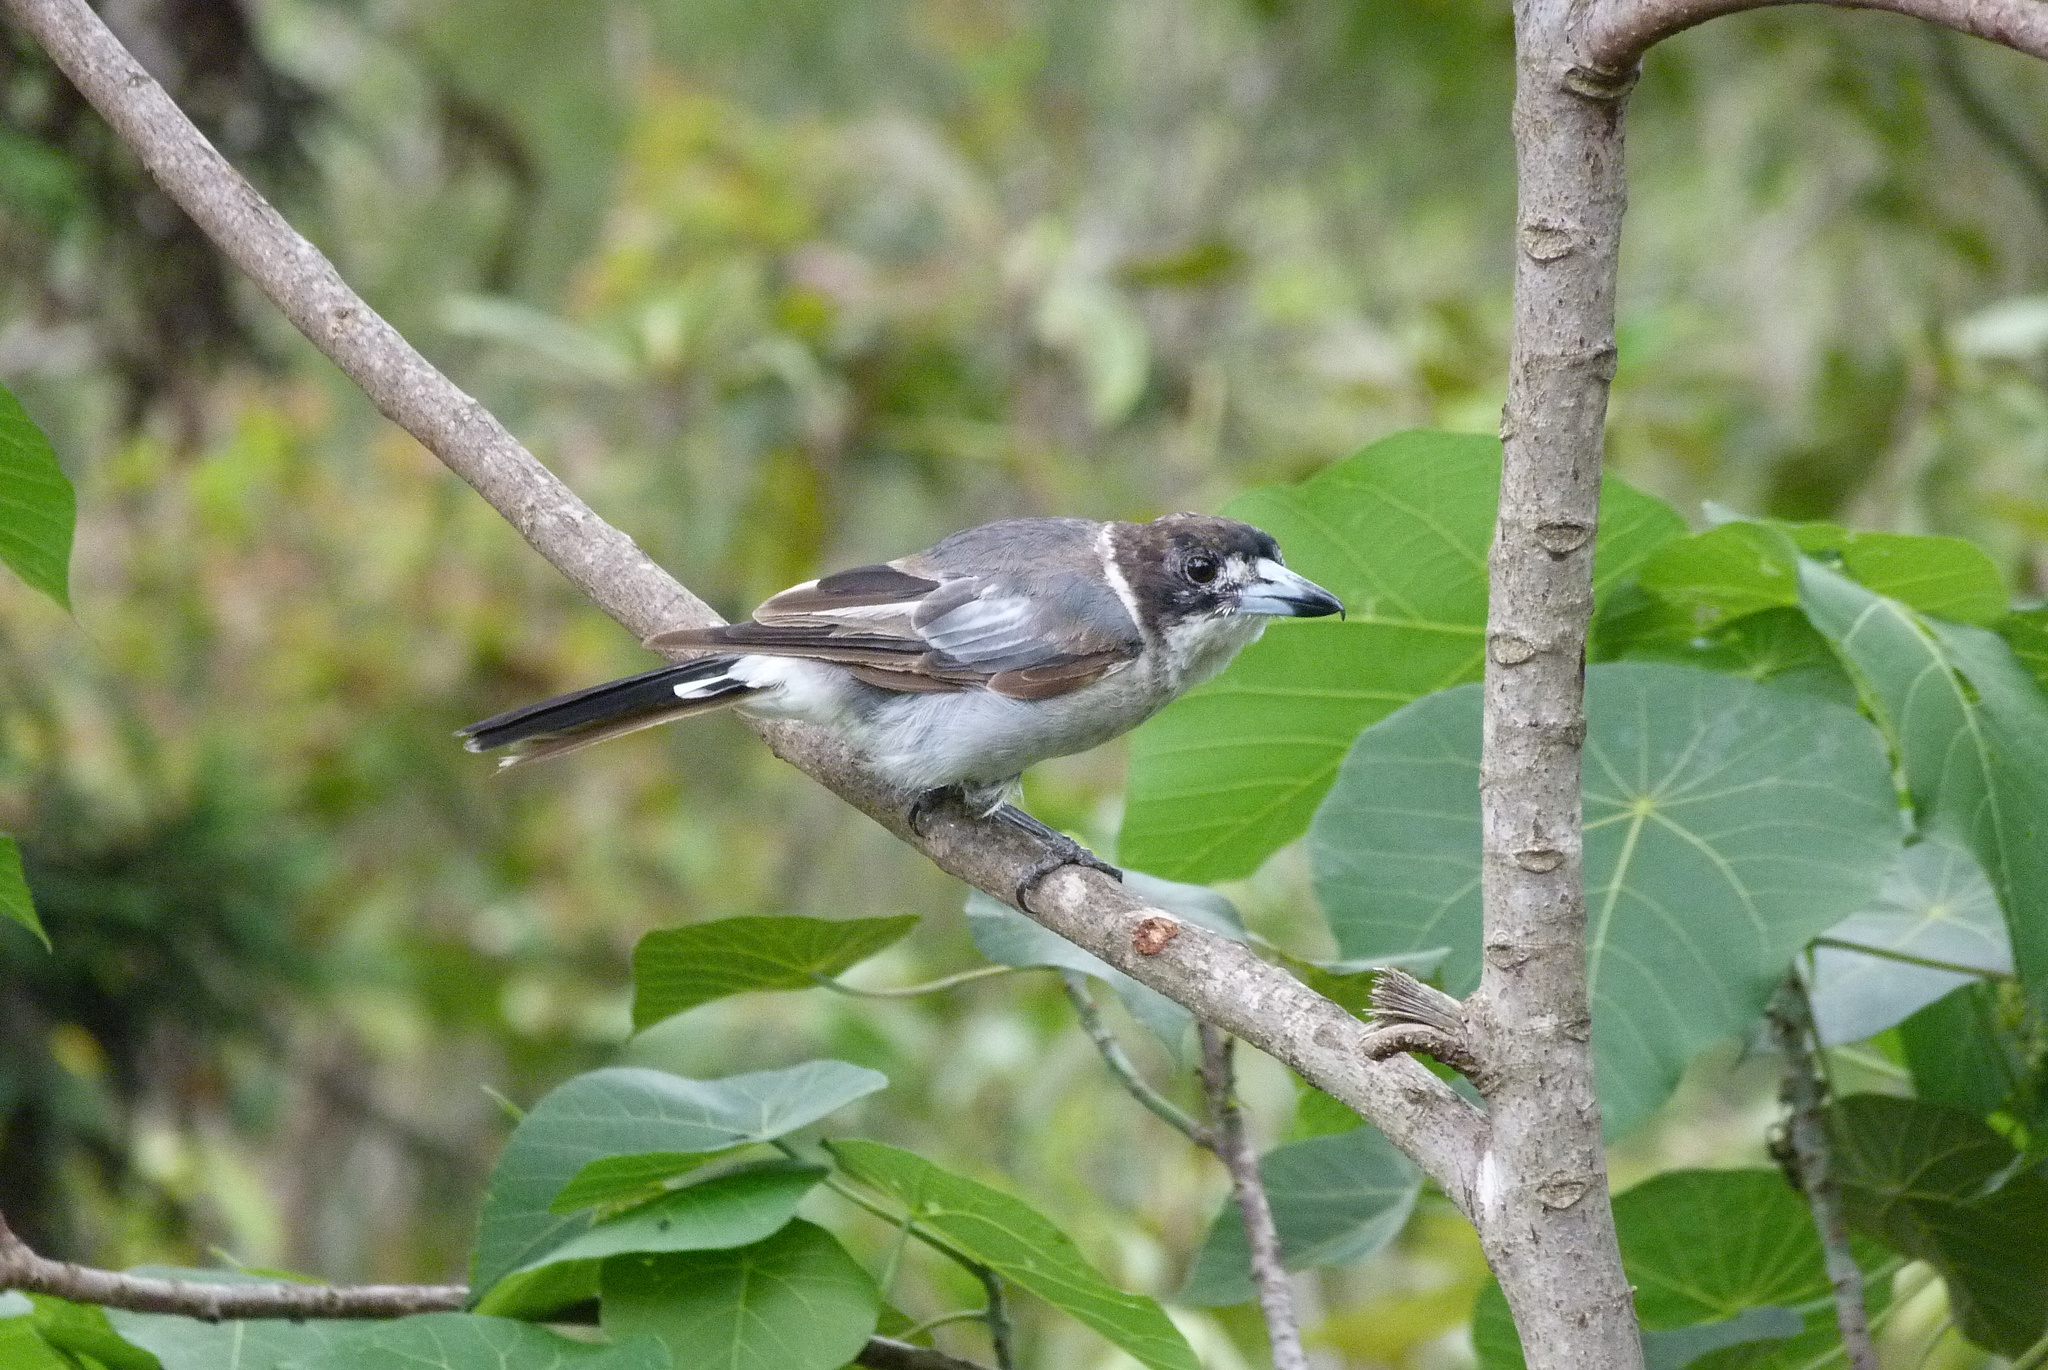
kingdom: Animalia
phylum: Chordata
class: Aves
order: Passeriformes
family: Cracticidae
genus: Cracticus
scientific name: Cracticus torquatus
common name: Grey butcherbird
